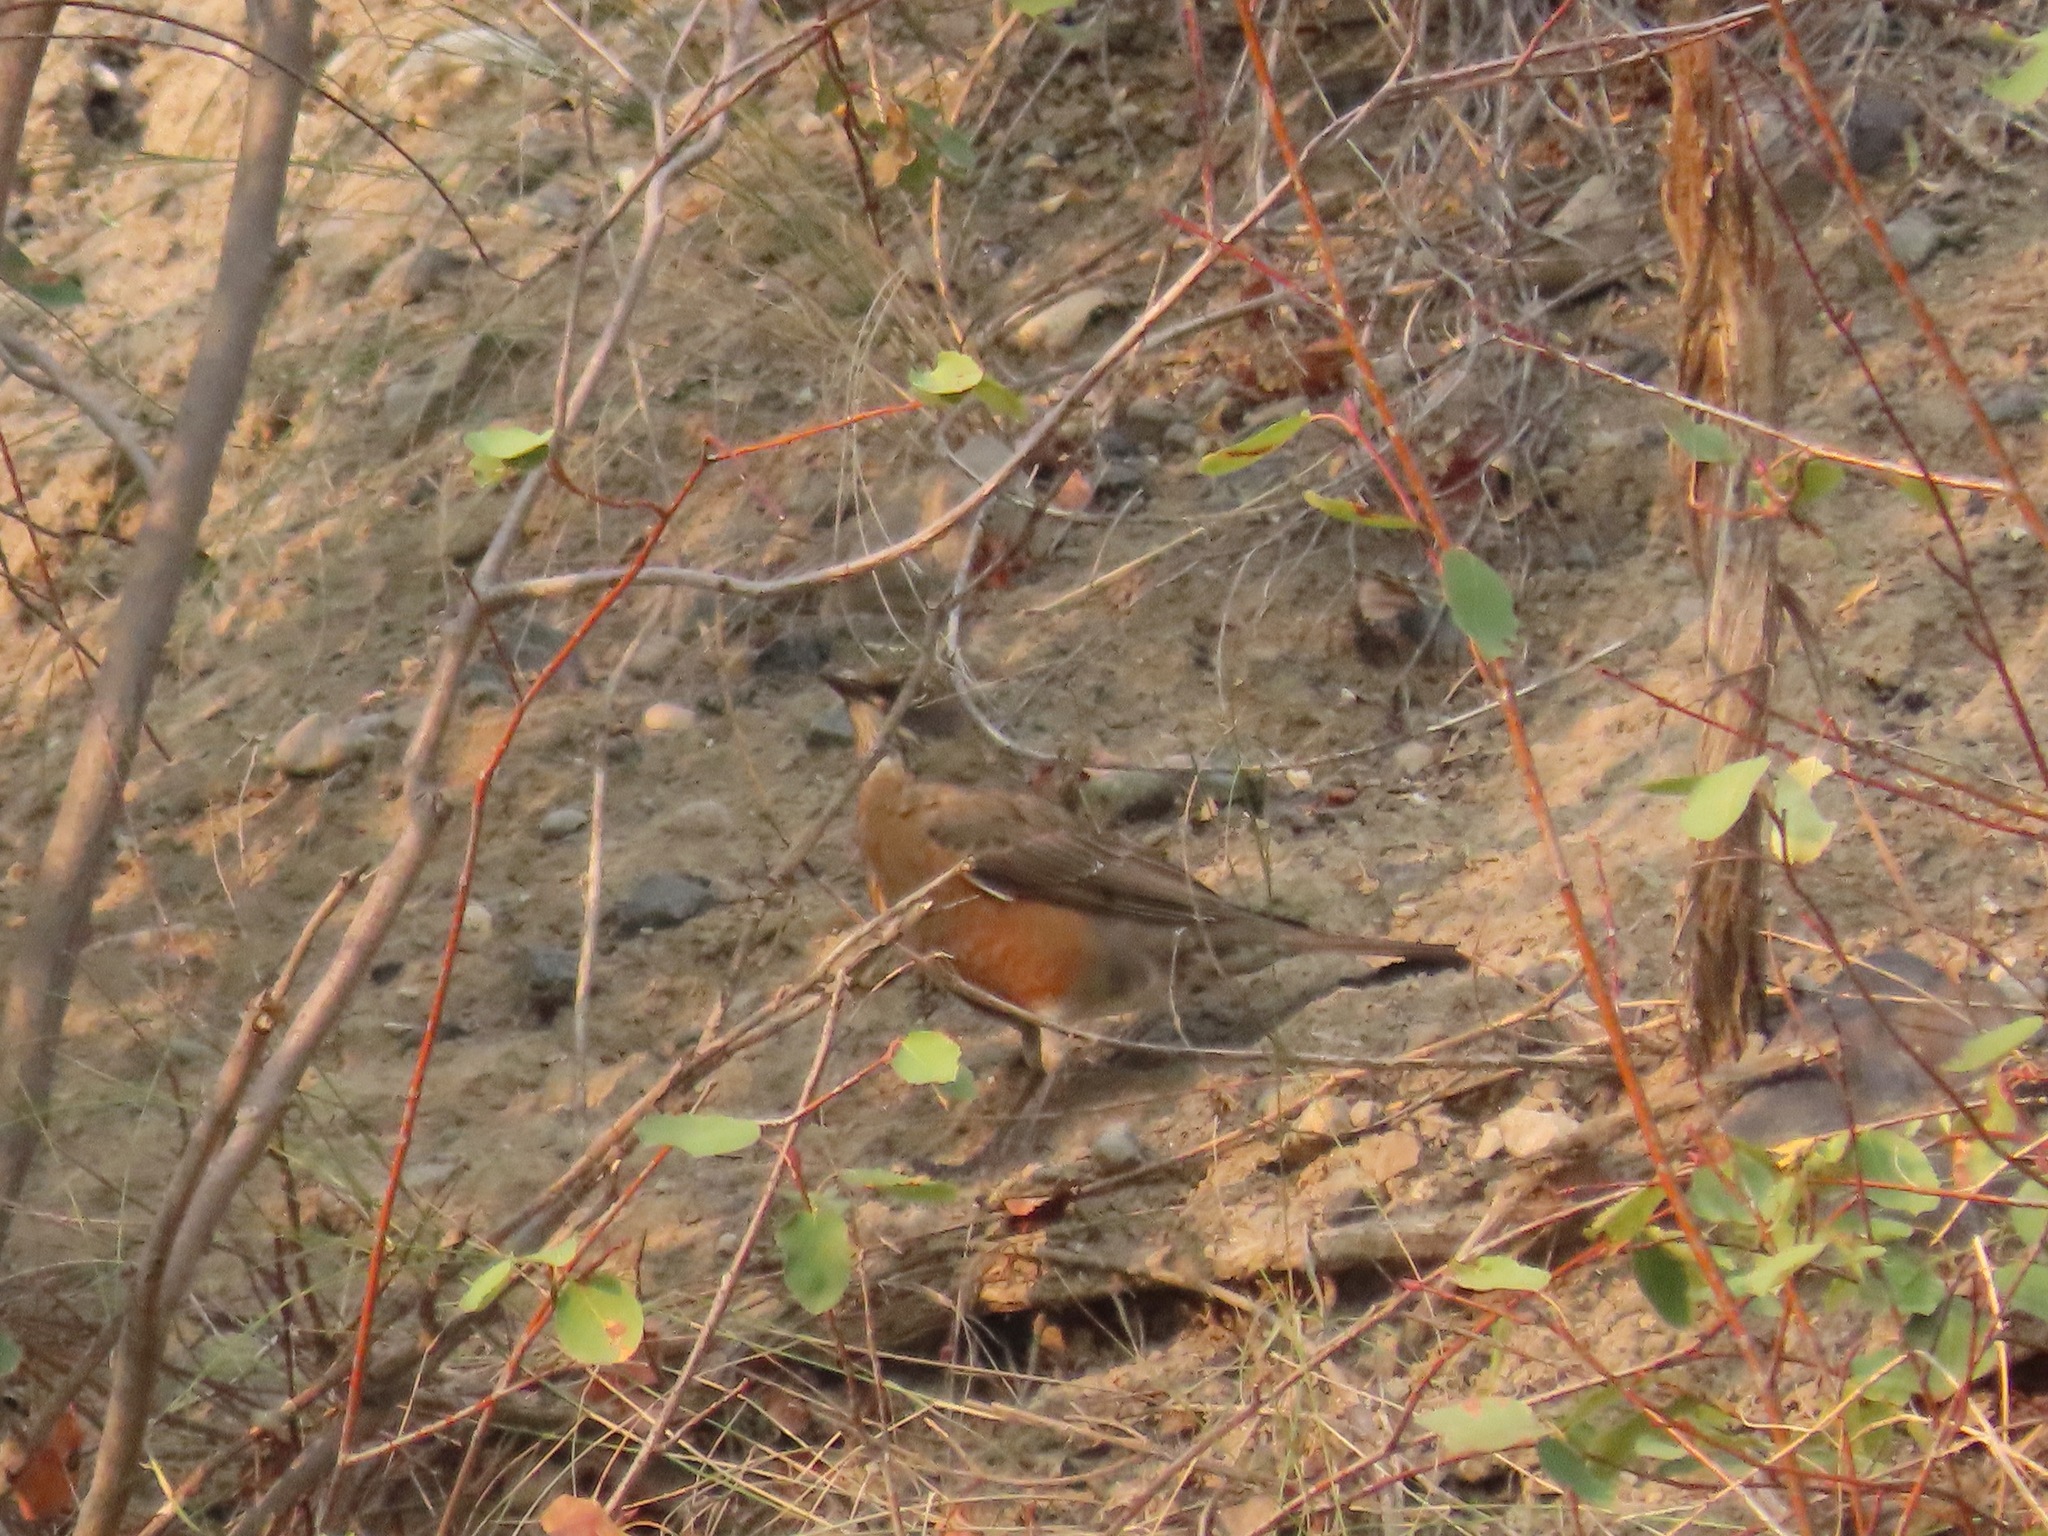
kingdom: Animalia
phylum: Chordata
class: Aves
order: Passeriformes
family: Turdidae
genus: Turdus
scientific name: Turdus migratorius
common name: American robin
